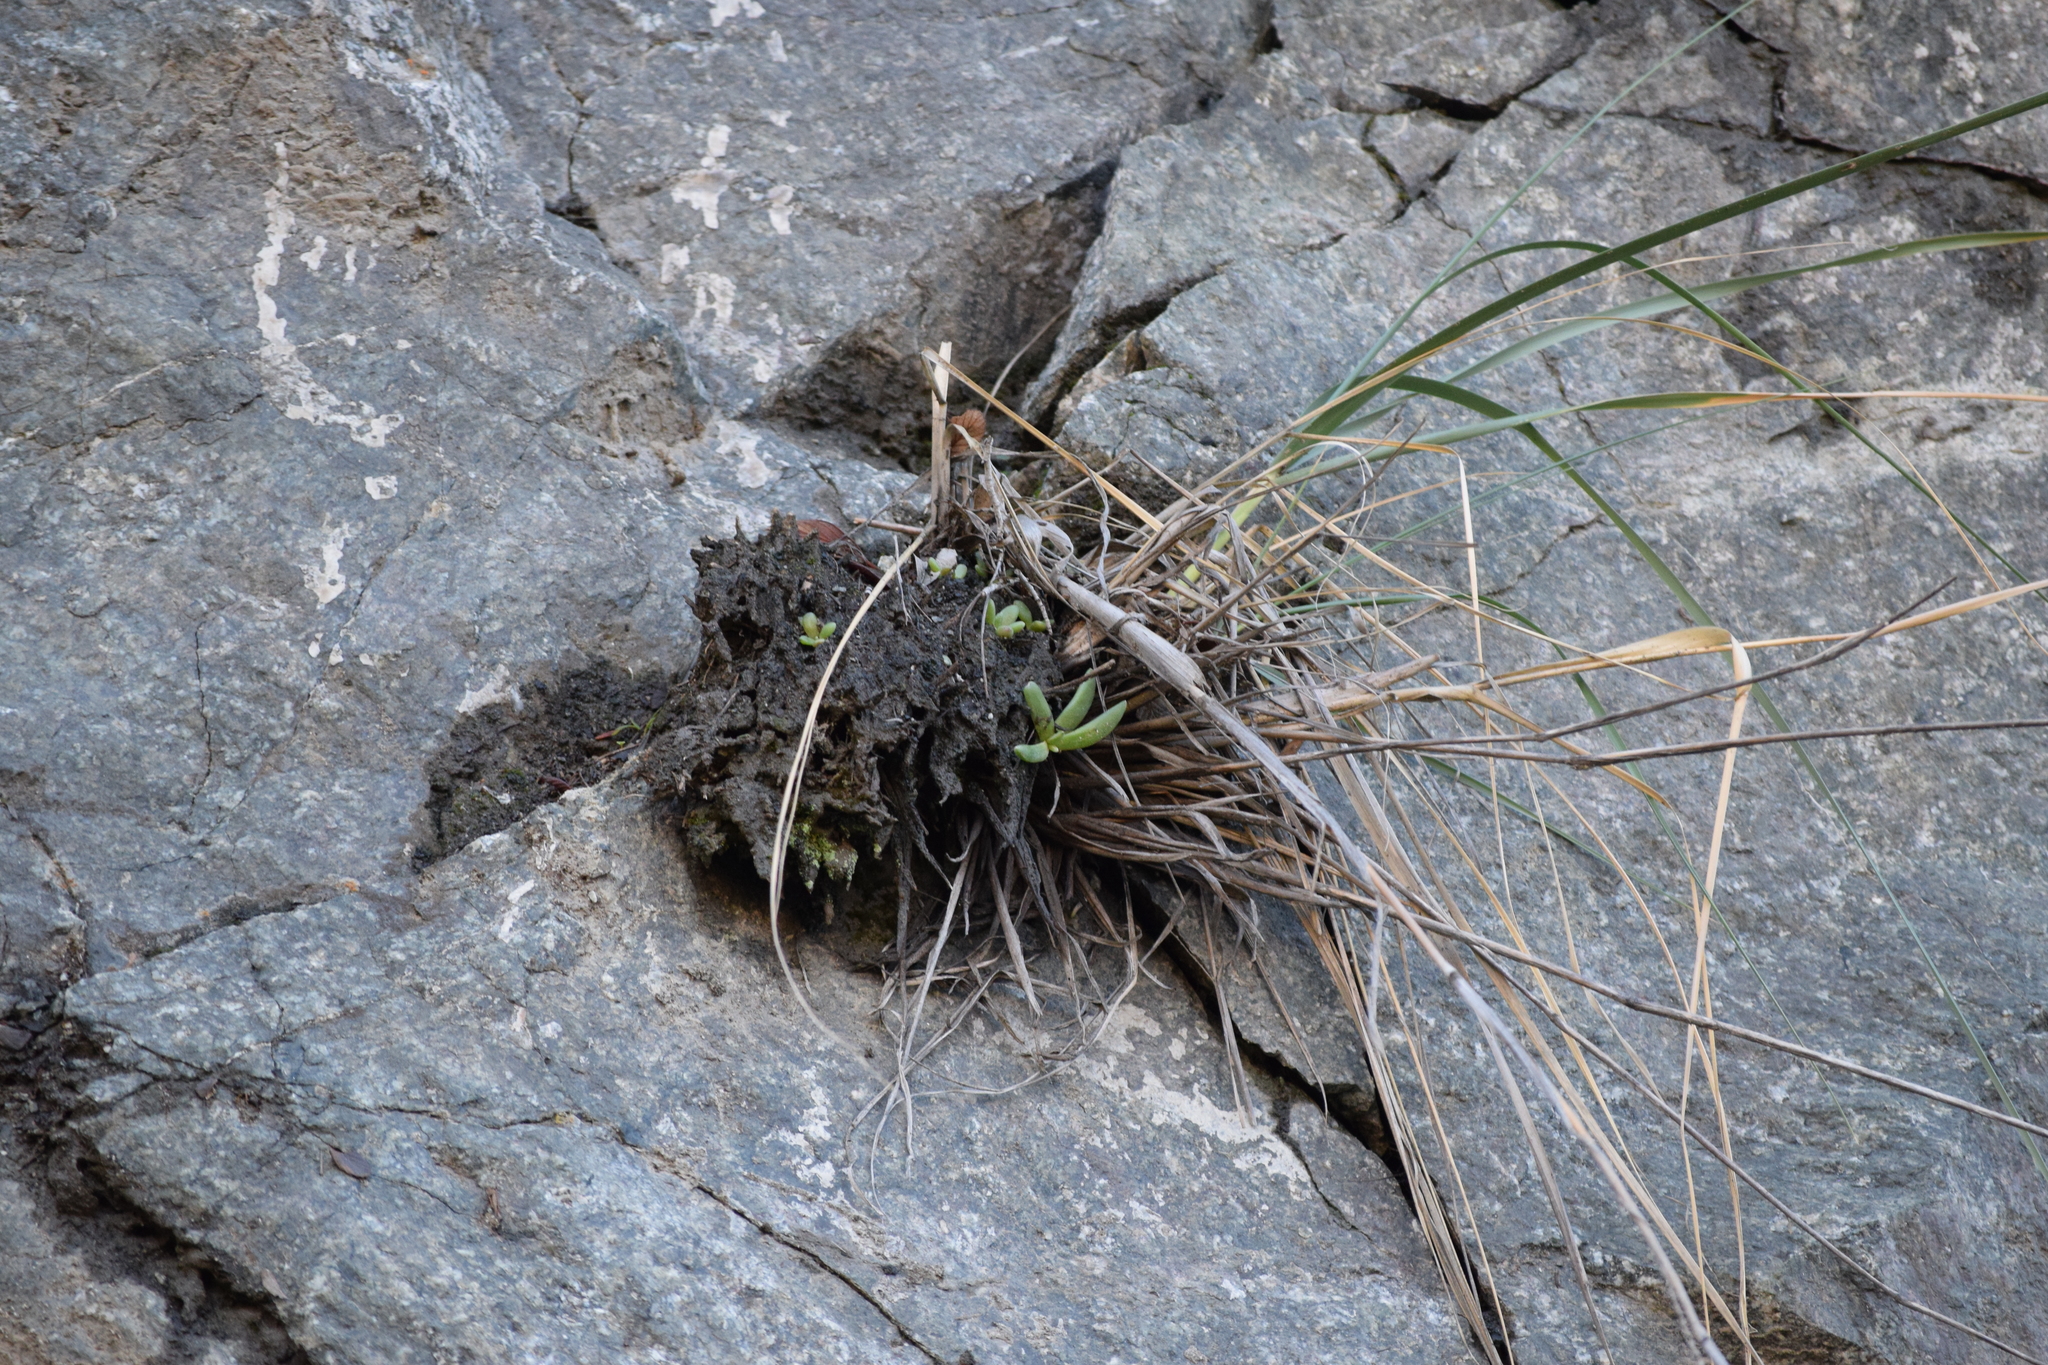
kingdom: Plantae
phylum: Tracheophyta
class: Magnoliopsida
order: Saxifragales
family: Crassulaceae
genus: Dudleya
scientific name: Dudleya densiflora
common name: San gabriel mountains dudleya
